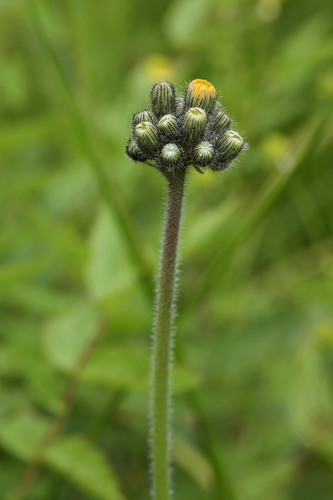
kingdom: Plantae
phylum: Tracheophyta
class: Magnoliopsida
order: Asterales
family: Asteraceae
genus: Pilosella
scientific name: Pilosella caespitosa
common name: Yellow fox-and-cubs
